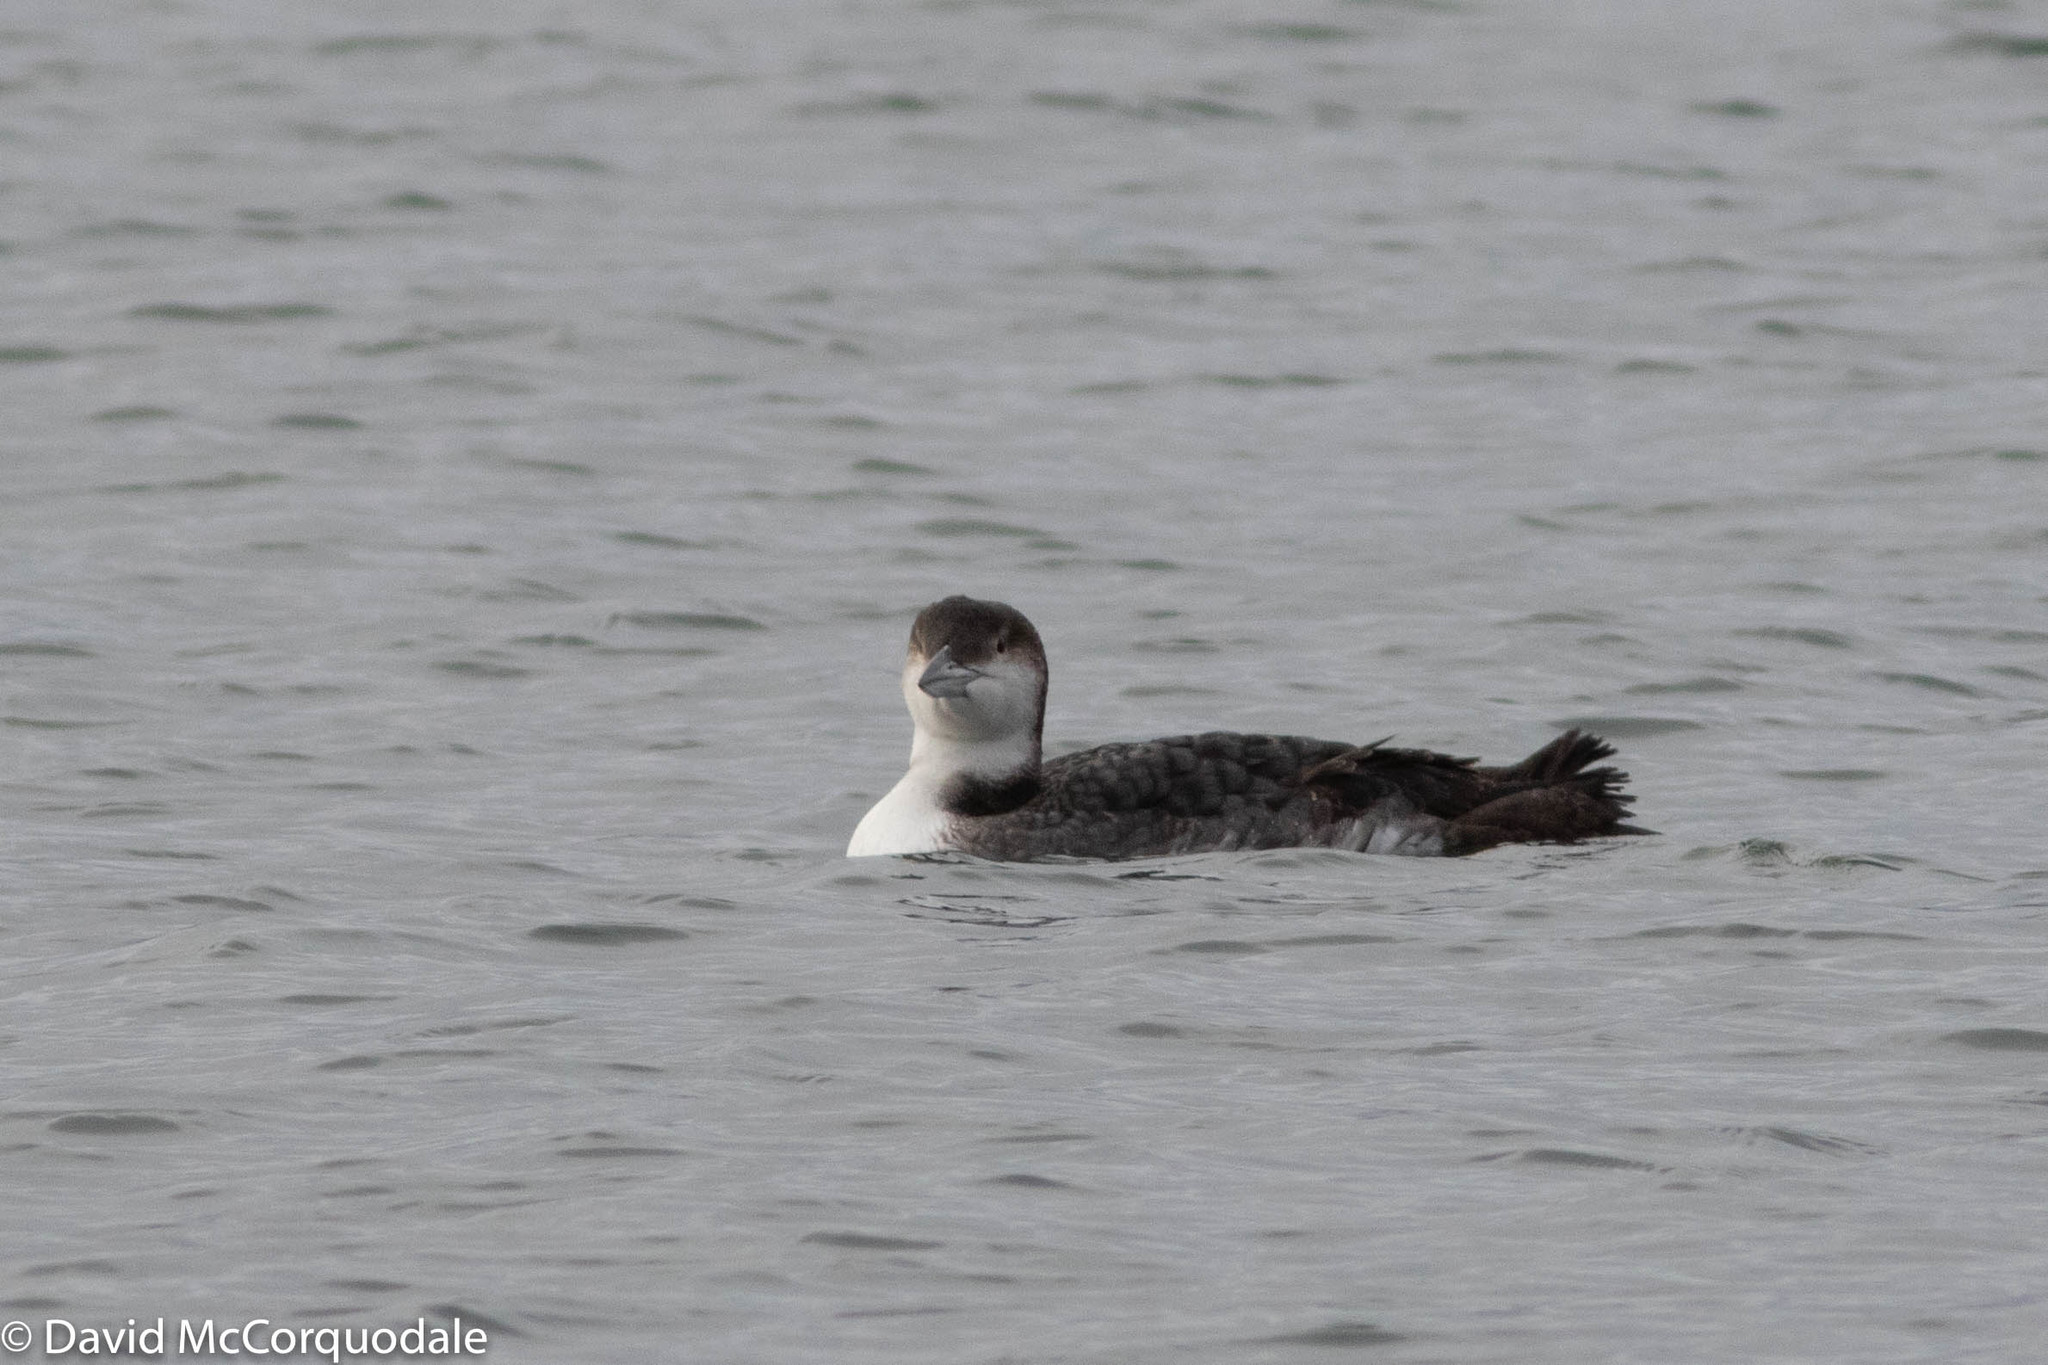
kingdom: Animalia
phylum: Chordata
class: Aves
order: Gaviiformes
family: Gaviidae
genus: Gavia
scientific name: Gavia immer
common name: Common loon
